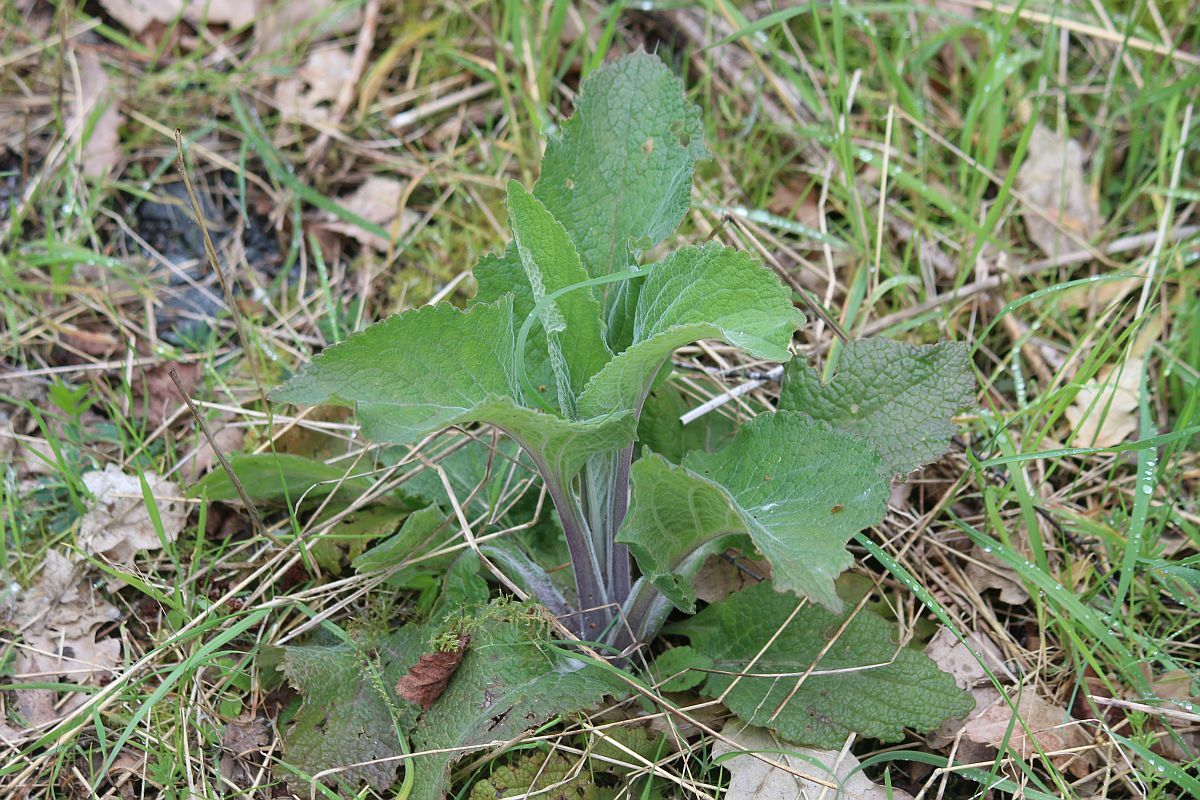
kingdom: Plantae
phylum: Tracheophyta
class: Magnoliopsida
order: Lamiales
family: Plantaginaceae
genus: Digitalis
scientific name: Digitalis purpurea
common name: Foxglove
